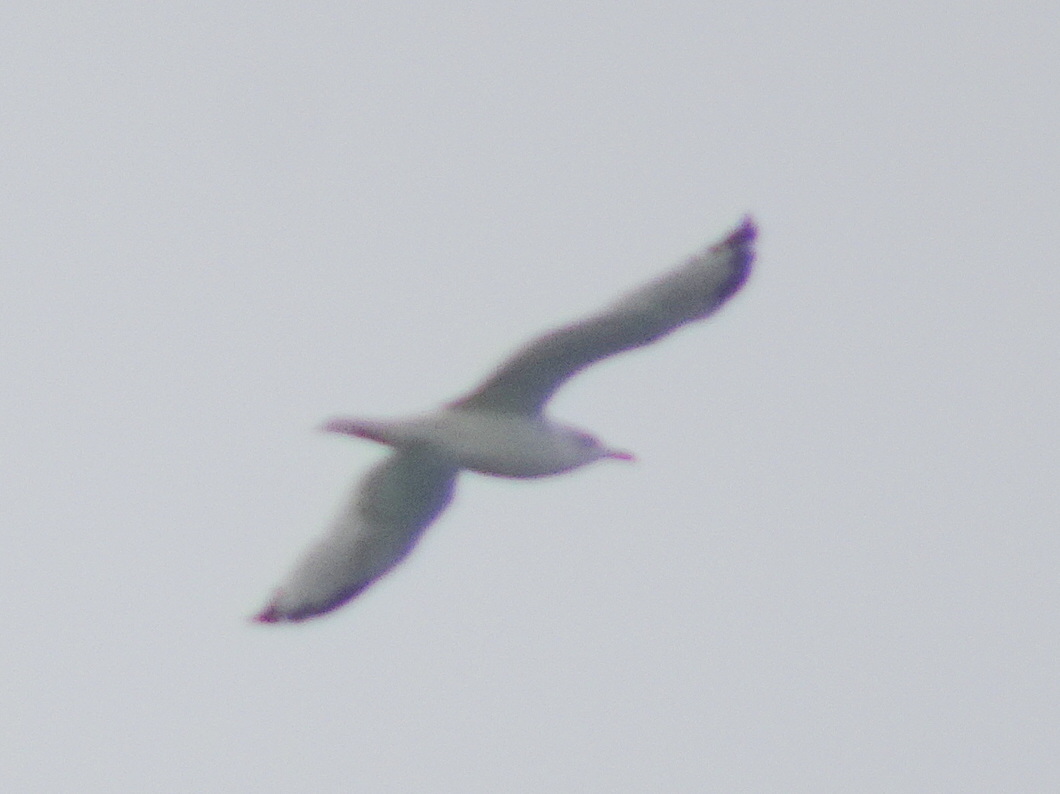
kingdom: Animalia
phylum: Chordata
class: Aves
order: Charadriiformes
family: Laridae
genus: Larus
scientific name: Larus delawarensis
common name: Ring-billed gull
